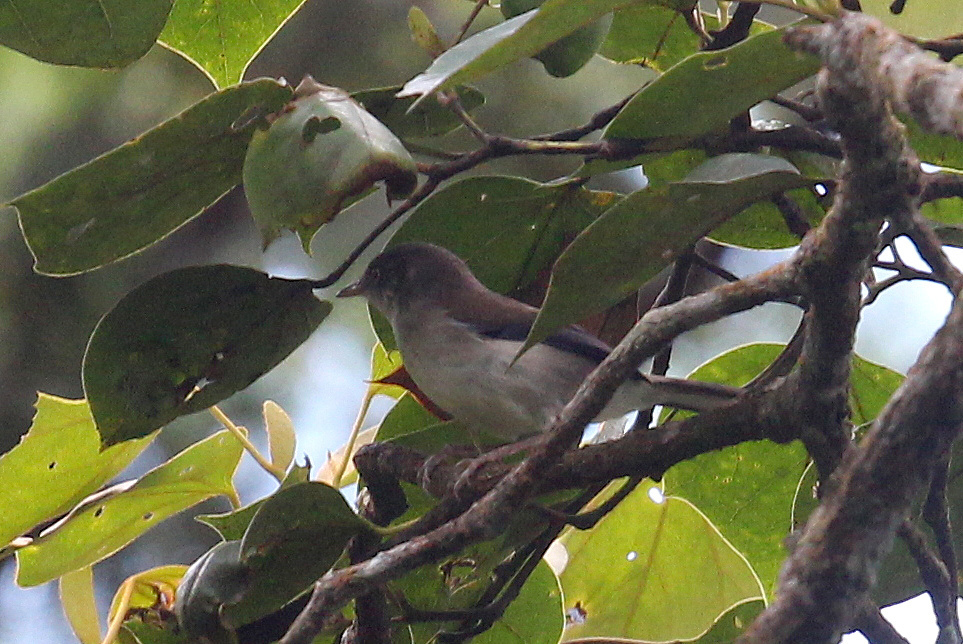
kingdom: Animalia
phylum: Chordata
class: Aves
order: Passeriformes
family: Leiothrichidae
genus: Minla
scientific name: Minla cyanouroptera
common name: Blue-winged minla
